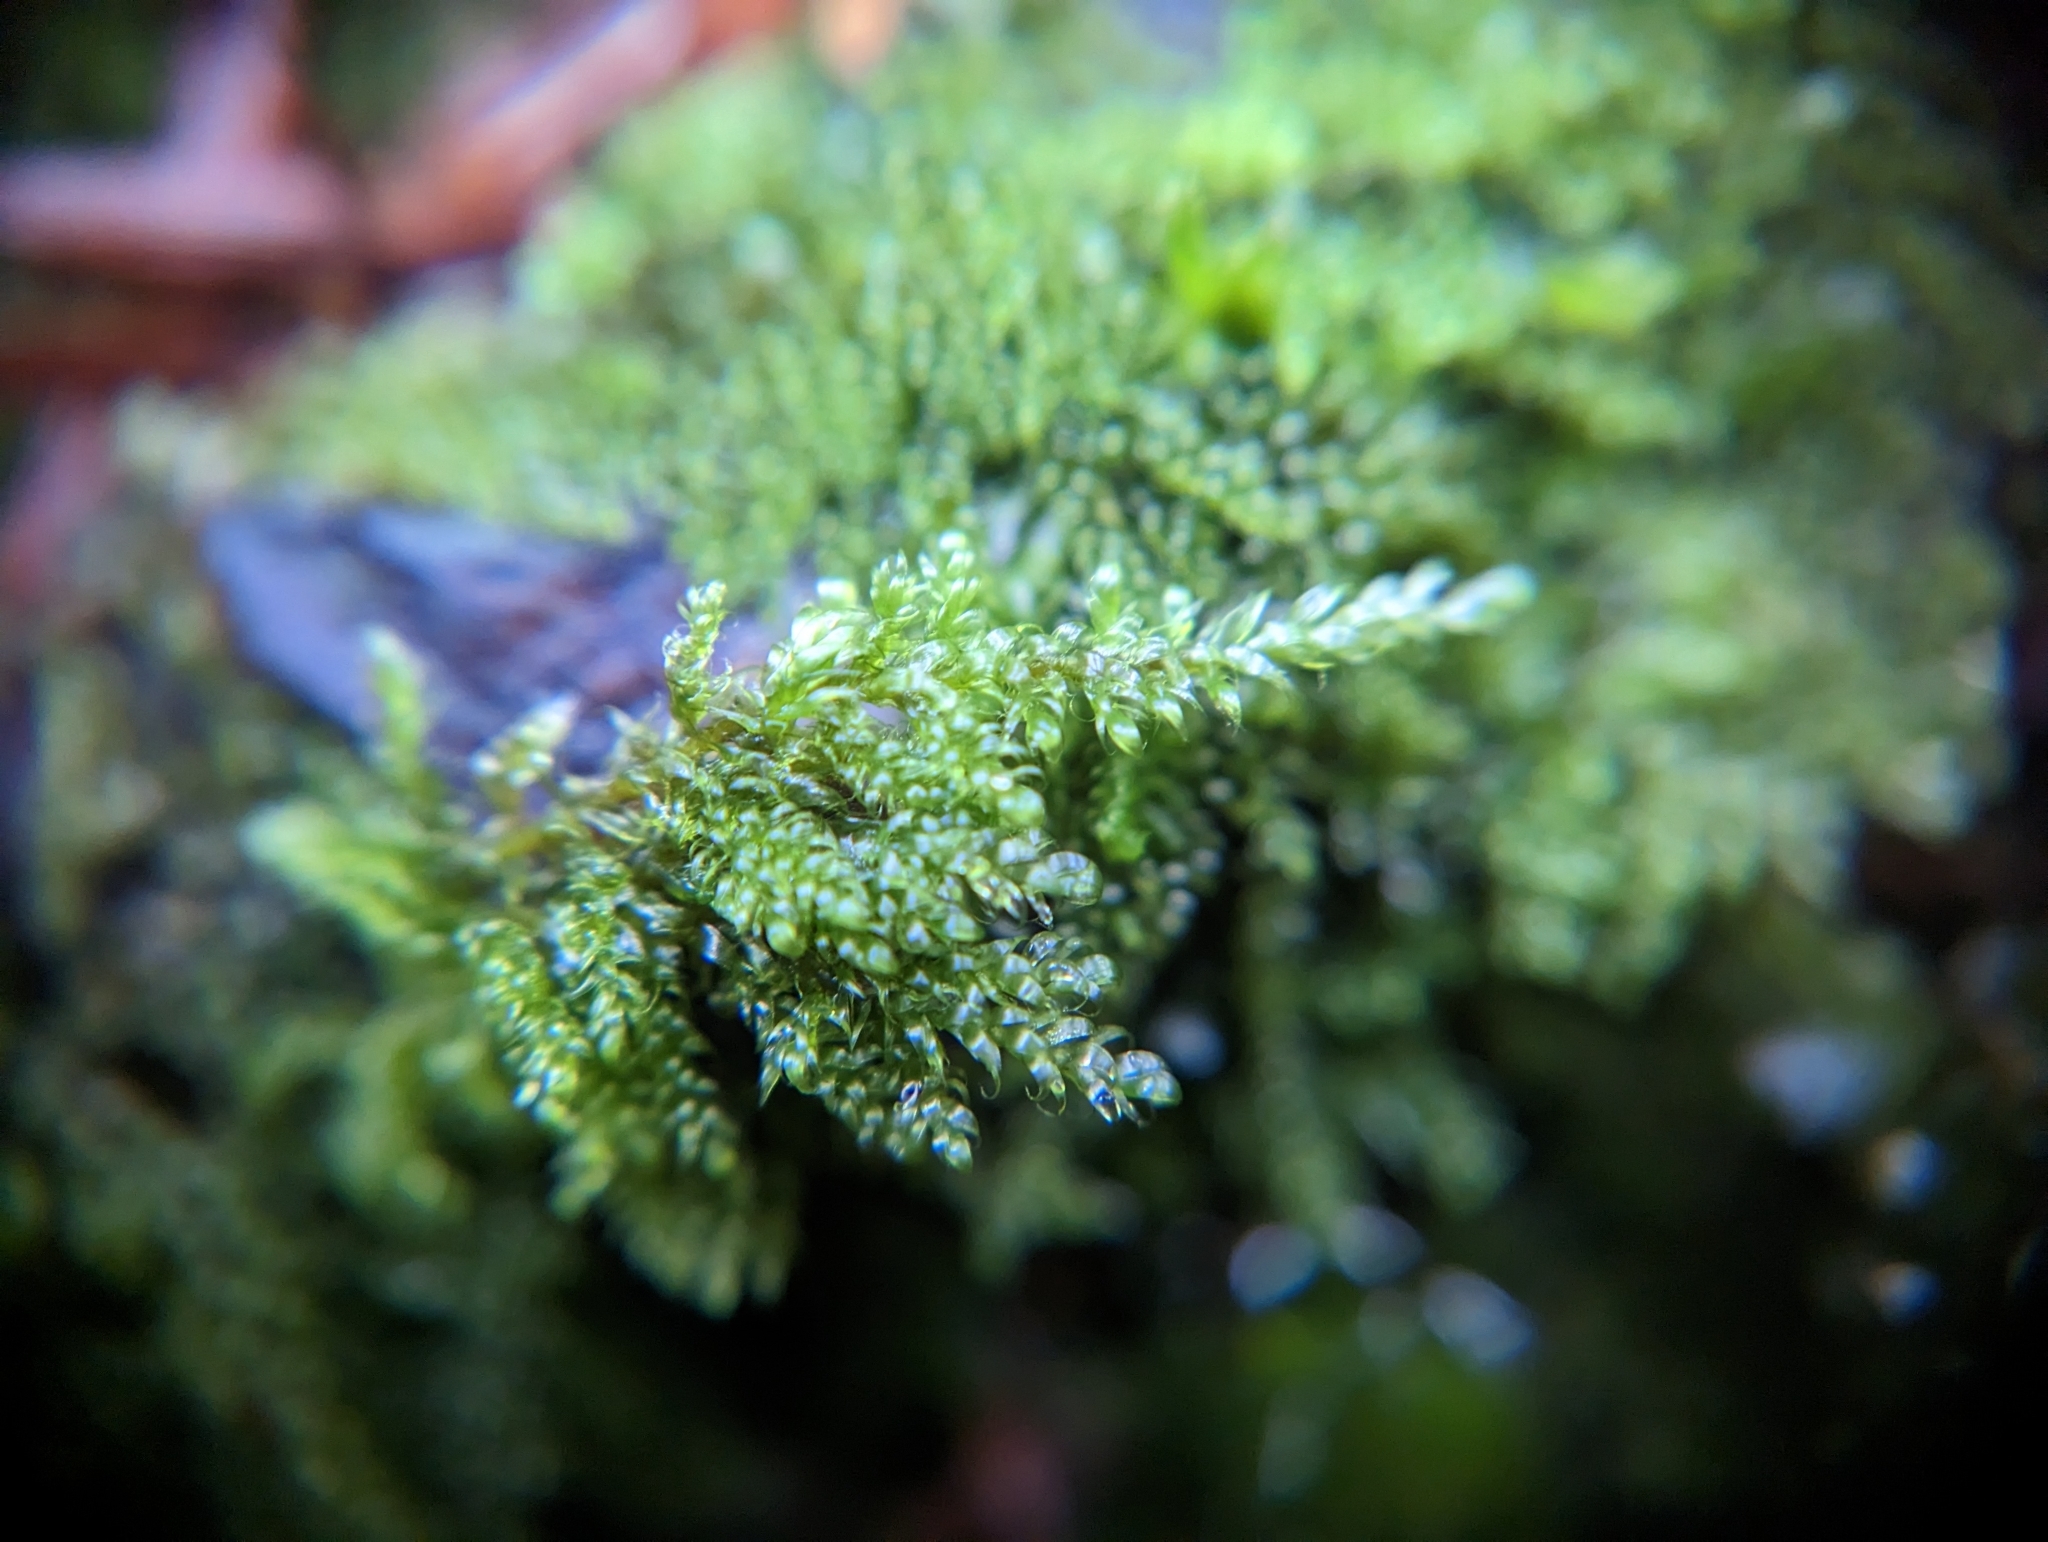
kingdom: Plantae
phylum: Bryophyta
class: Bryopsida
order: Hypnales
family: Pylaisiadelphaceae
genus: Trochophyllohypnum
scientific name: Trochophyllohypnum circinale
